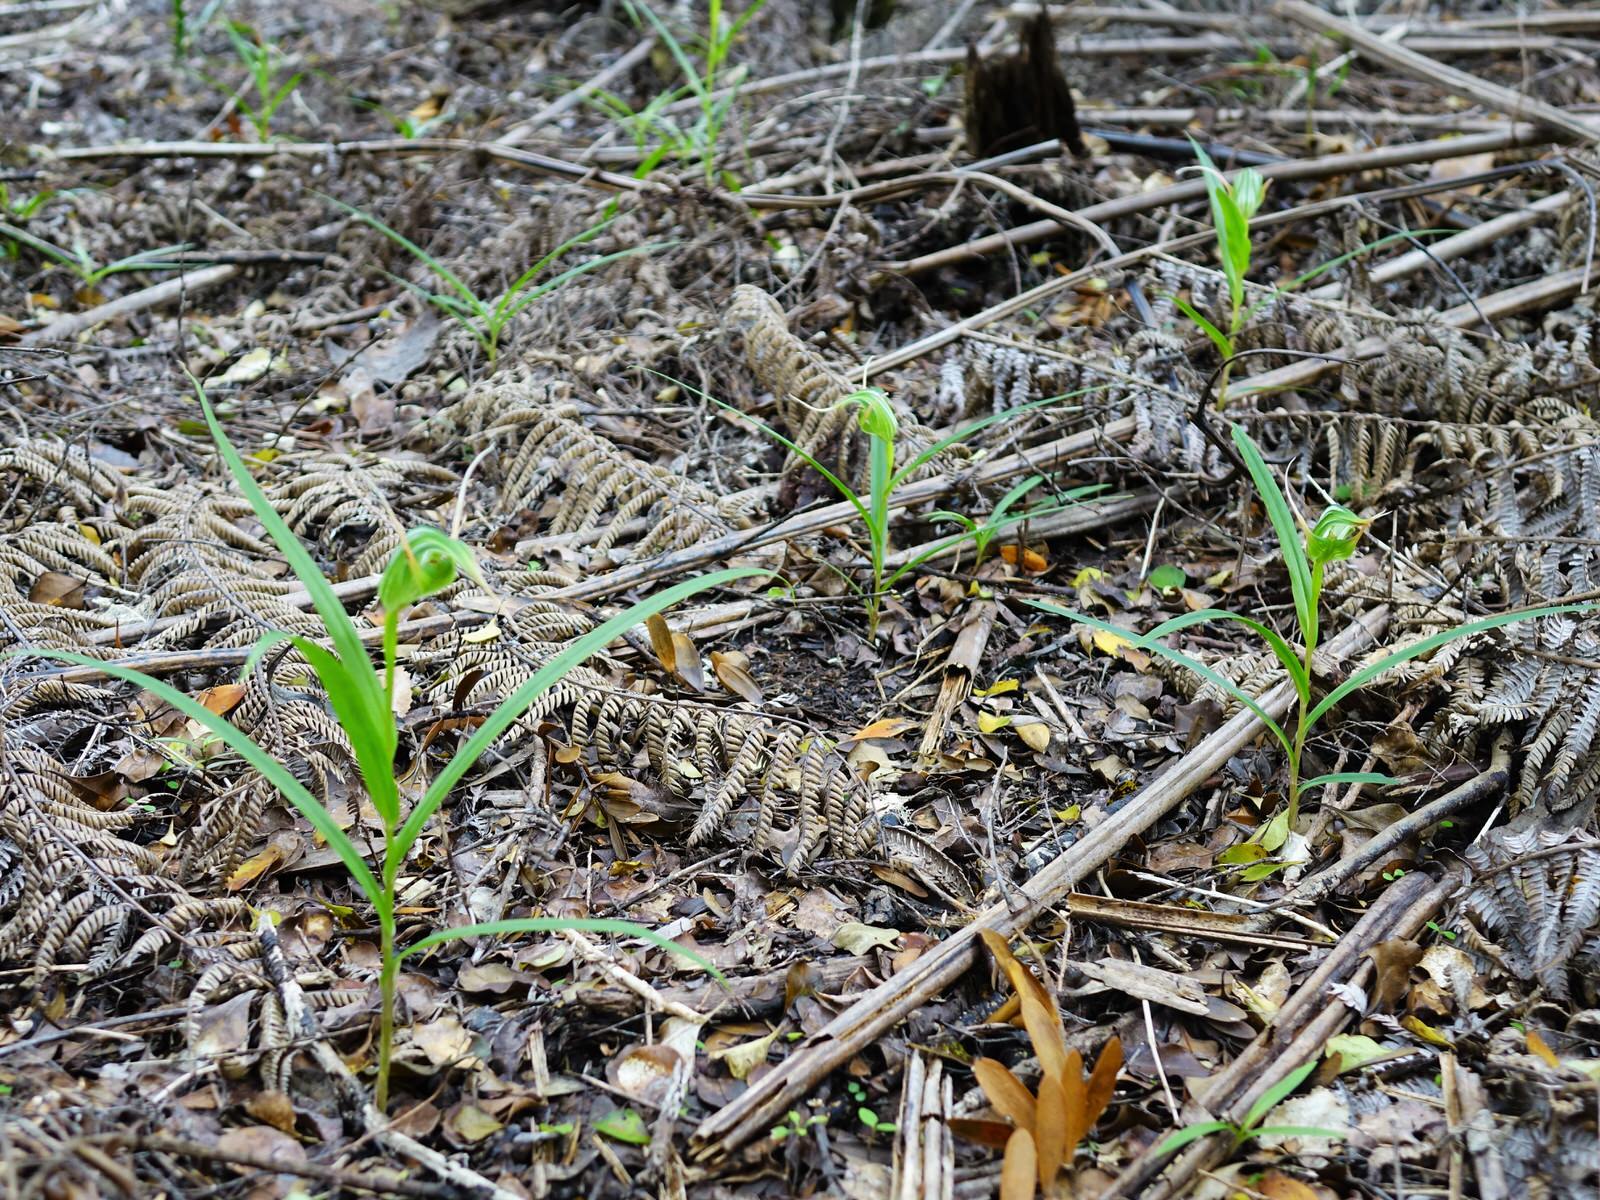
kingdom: Plantae
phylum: Tracheophyta
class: Liliopsida
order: Asparagales
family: Orchidaceae
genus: Pterostylis
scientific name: Pterostylis banksii
